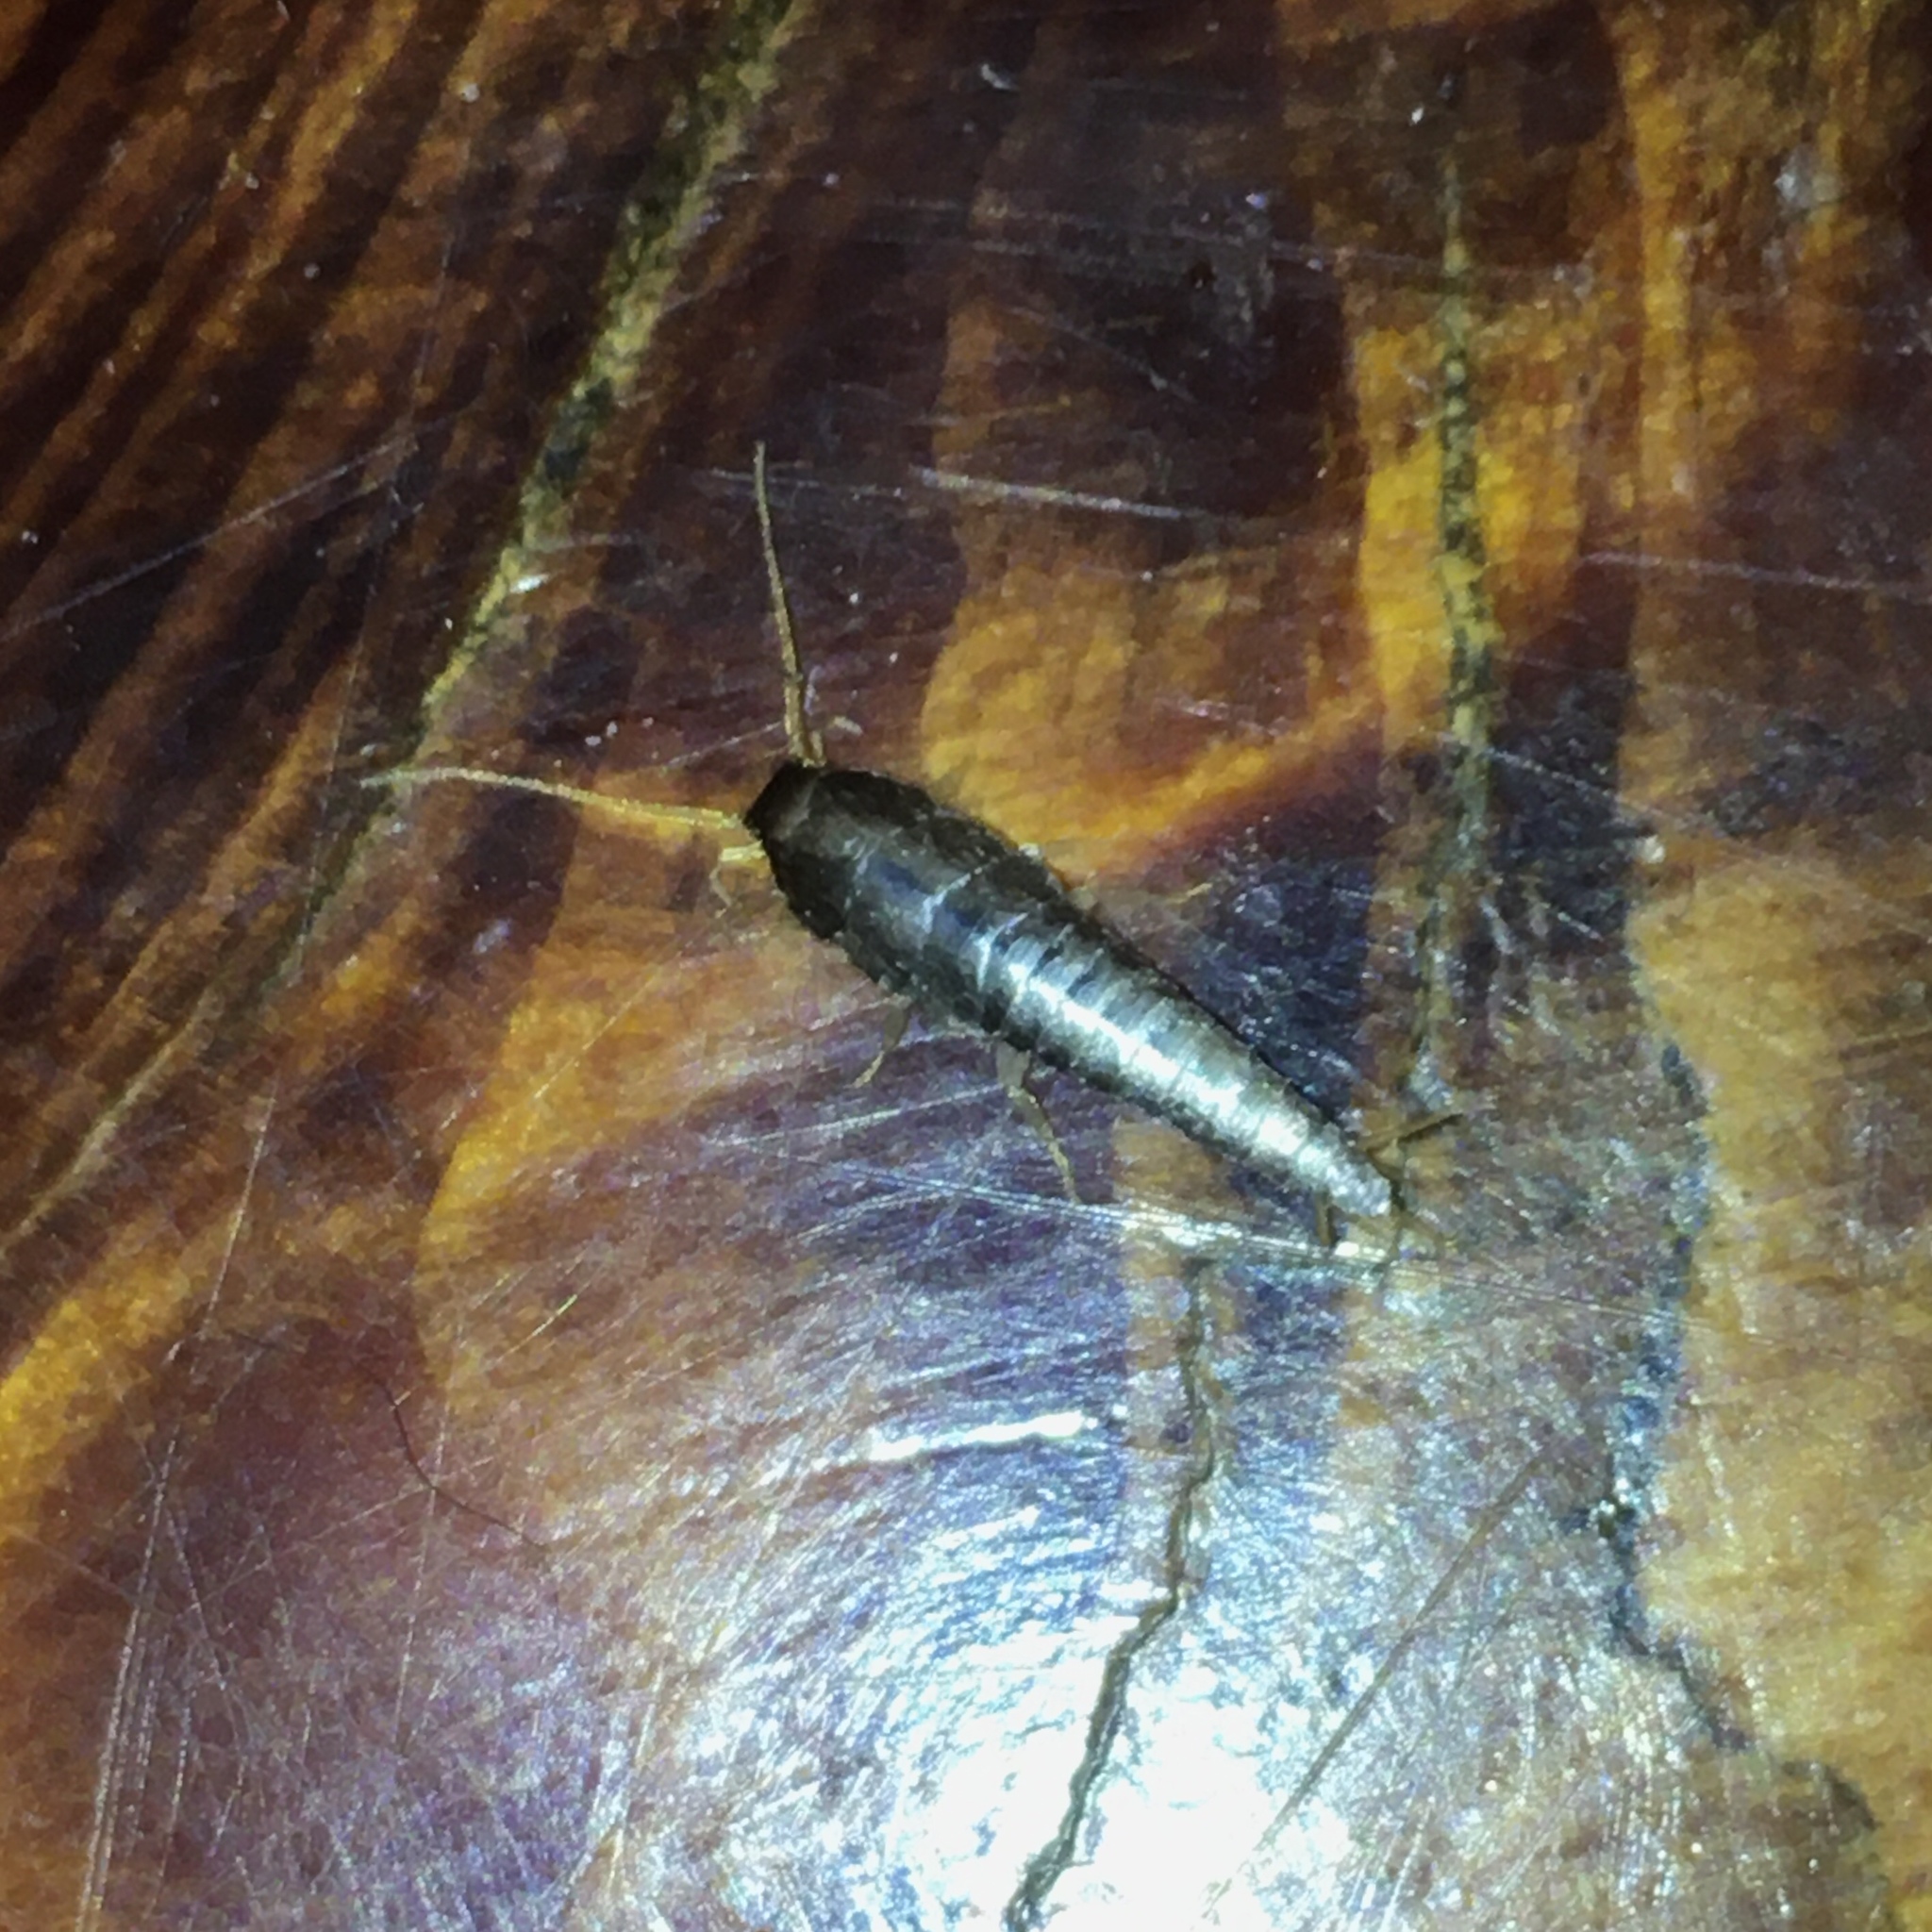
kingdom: Animalia
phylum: Arthropoda
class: Insecta
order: Zygentoma
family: Lepismatidae
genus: Lepisma
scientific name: Lepisma saccharinum
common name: Silverfish
